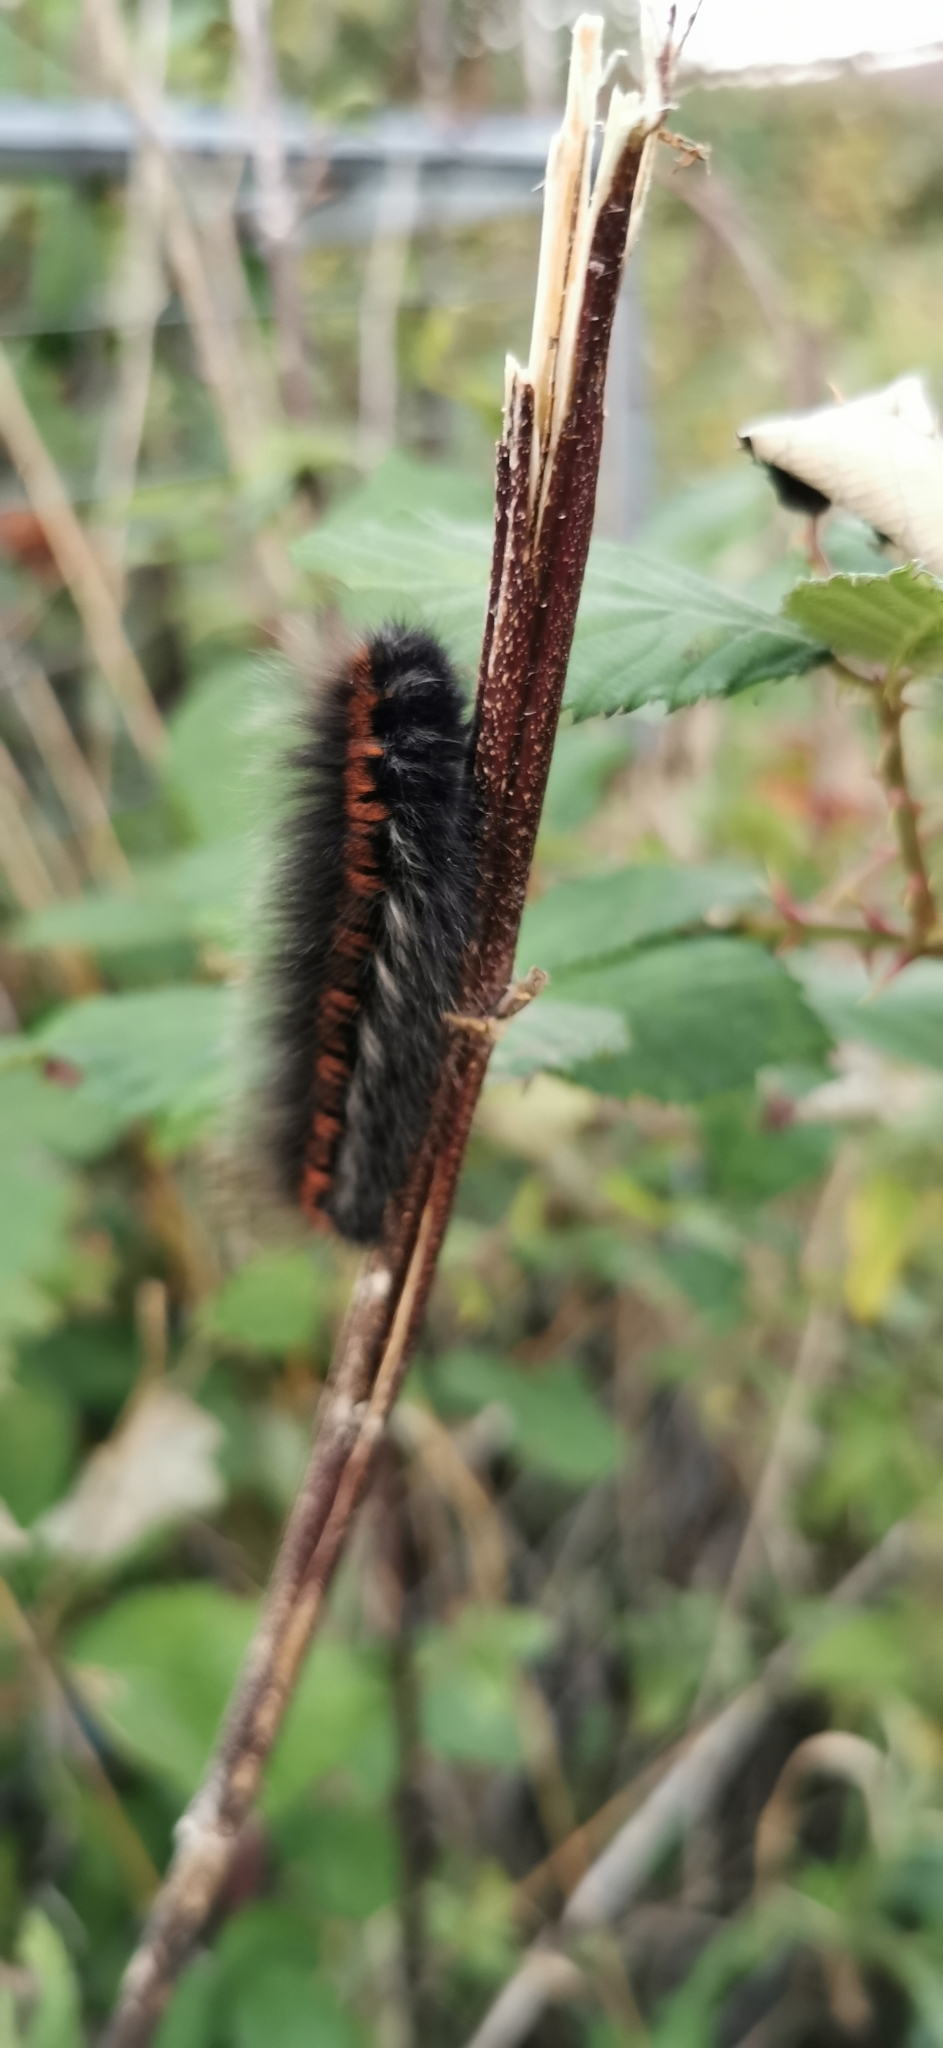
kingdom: Animalia
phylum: Arthropoda
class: Insecta
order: Lepidoptera
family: Lasiocampidae
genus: Macrothylacia
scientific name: Macrothylacia rubi
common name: Fox moth
